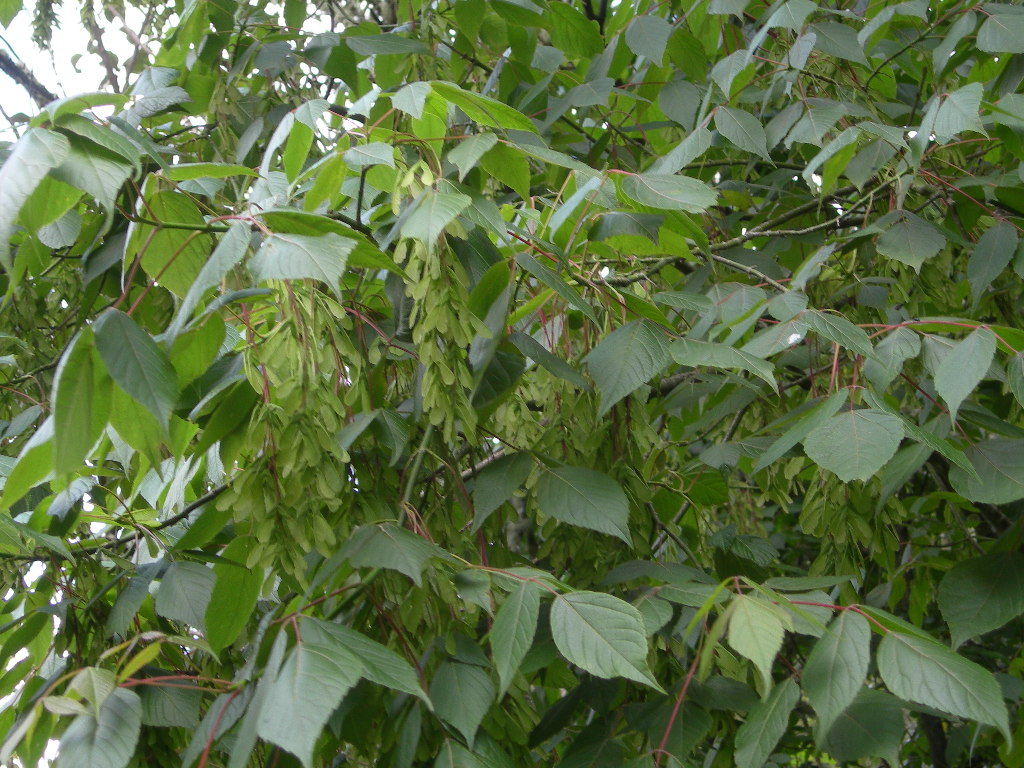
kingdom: Plantae
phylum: Tracheophyta
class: Magnoliopsida
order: Sapindales
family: Sapindaceae
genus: Acer
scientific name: Acer negundo
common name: Ashleaf maple
